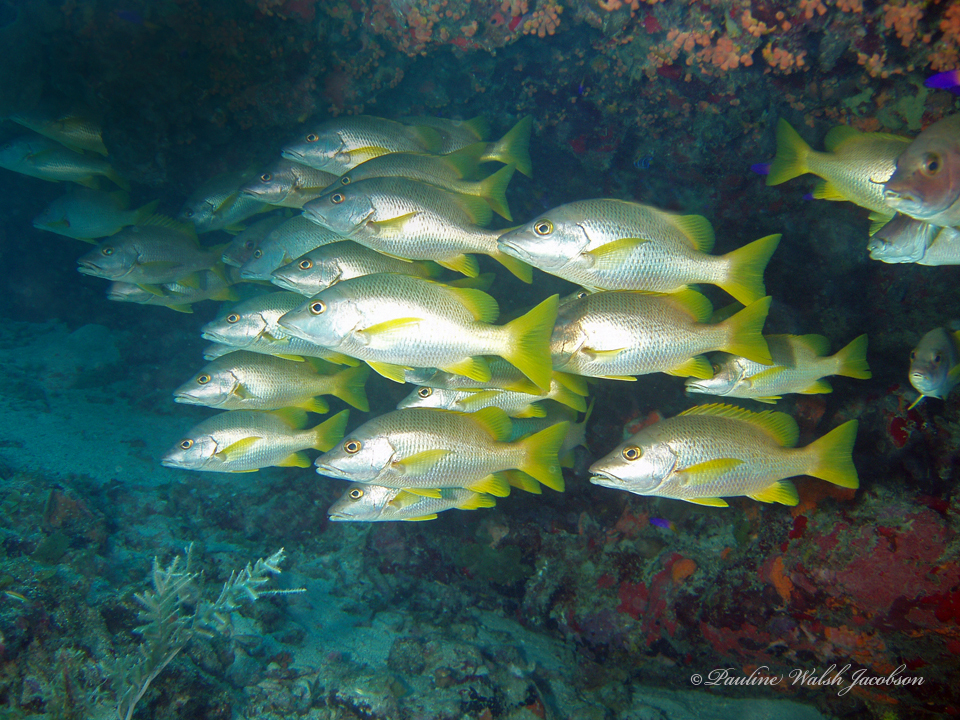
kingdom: Animalia
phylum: Chordata
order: Perciformes
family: Lutjanidae
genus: Lutjanus
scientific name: Lutjanus apodus
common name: Schoolmaster
